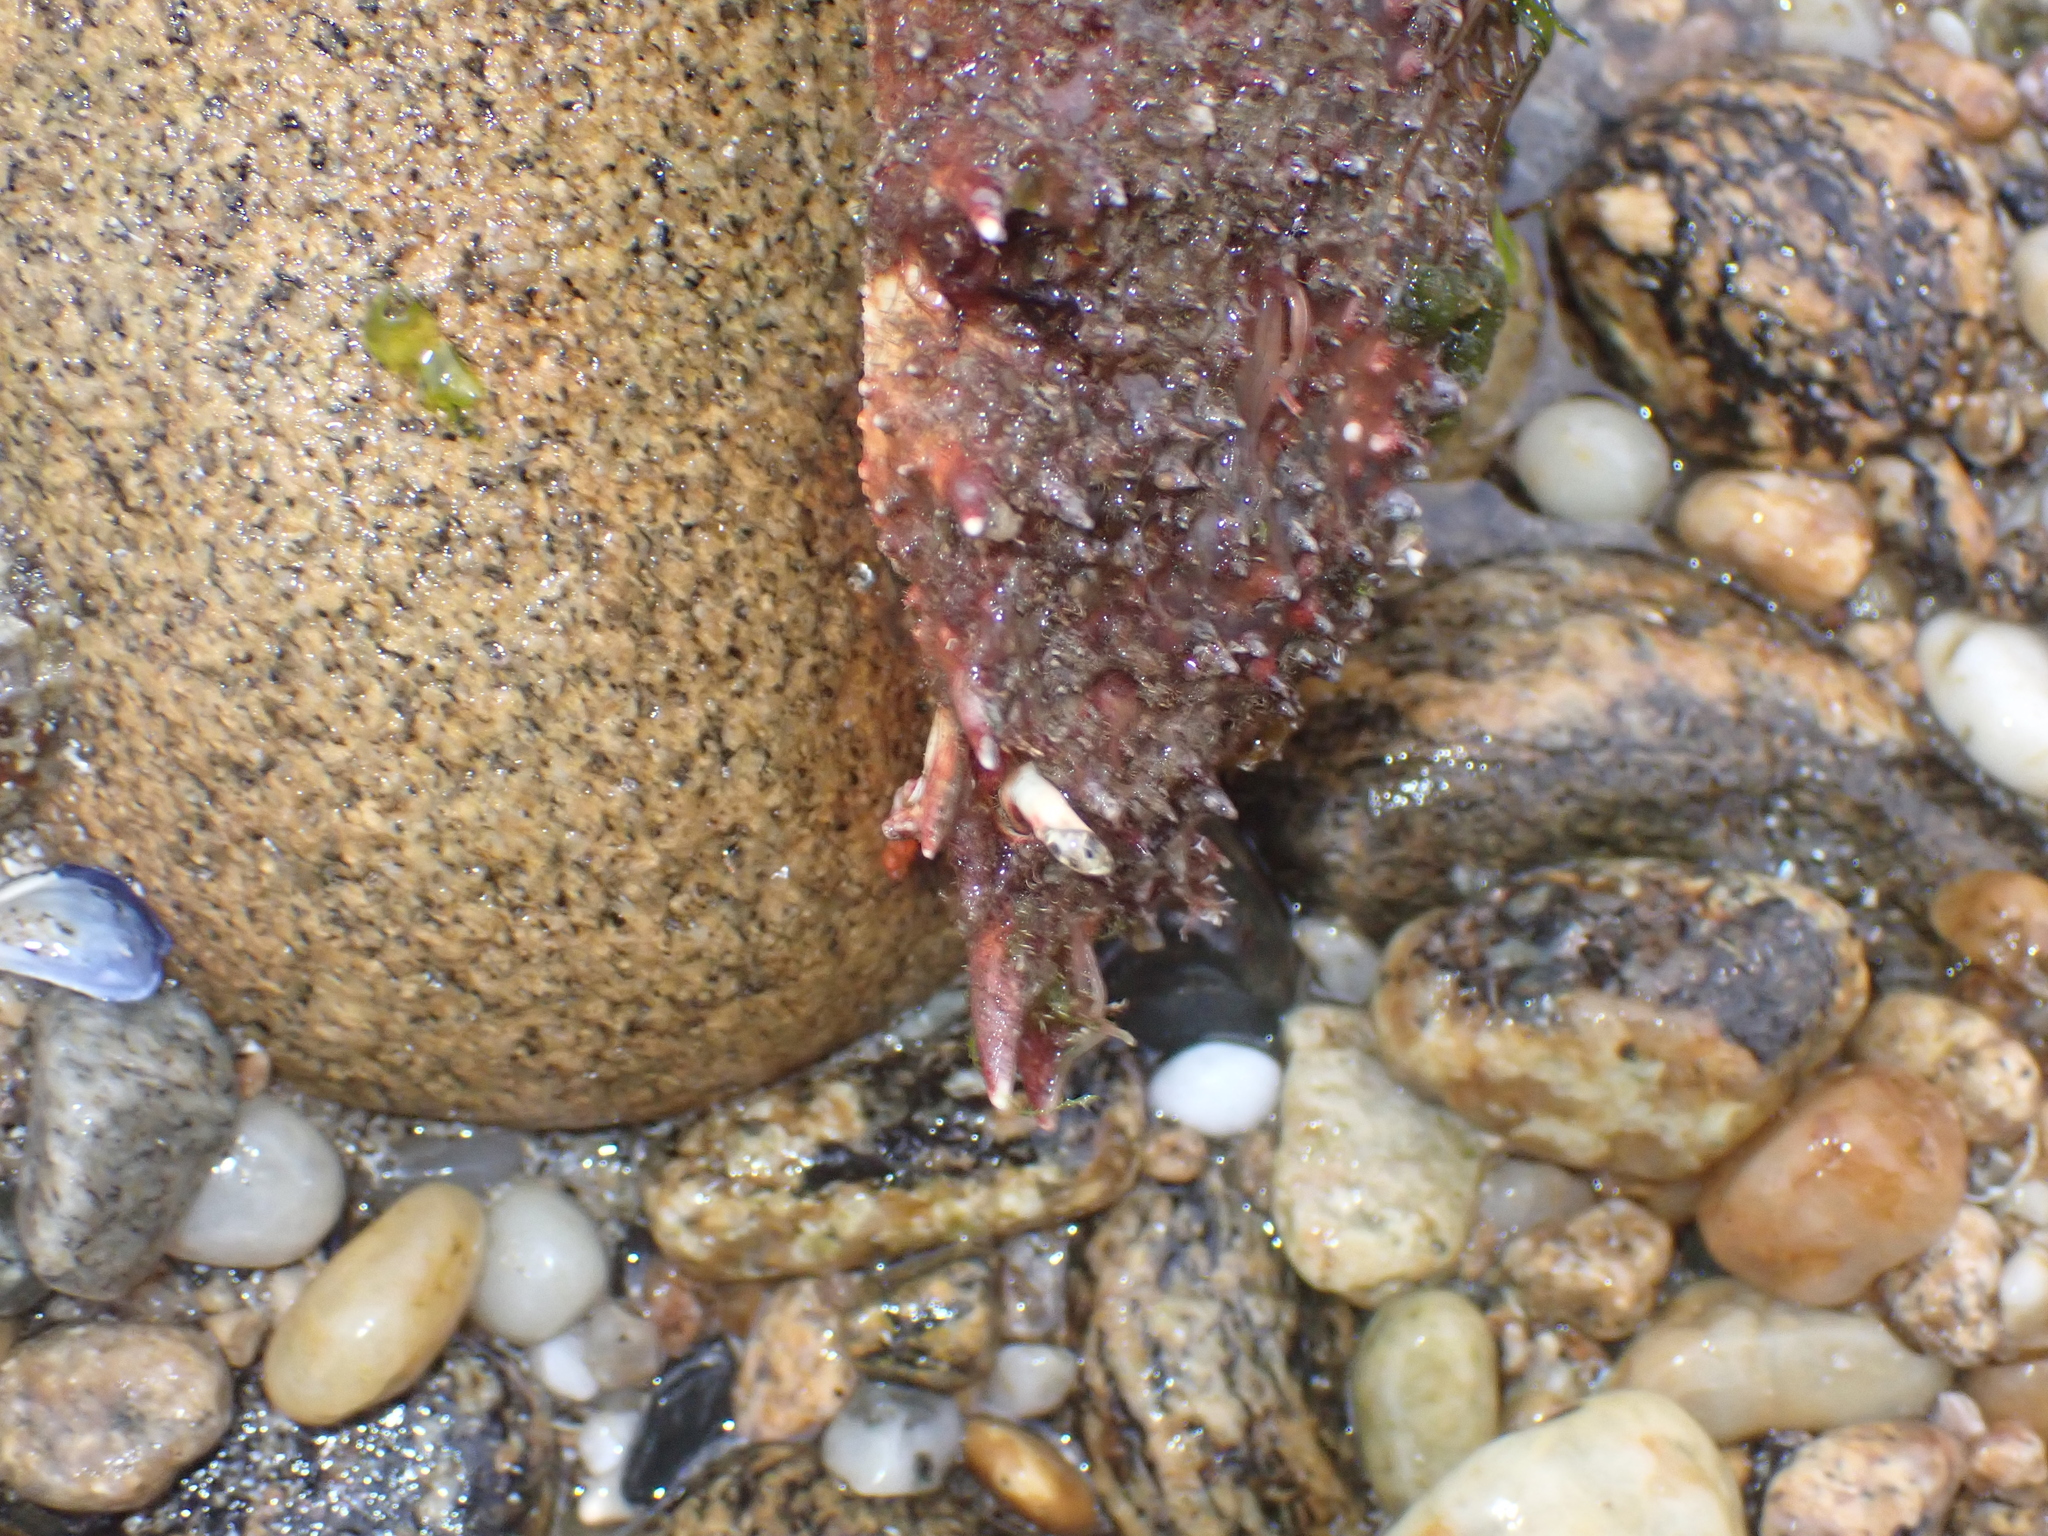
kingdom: Animalia
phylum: Arthropoda
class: Malacostraca
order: Decapoda
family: Majidae
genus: Maja
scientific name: Maja brachydactyla
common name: Common spider crab
